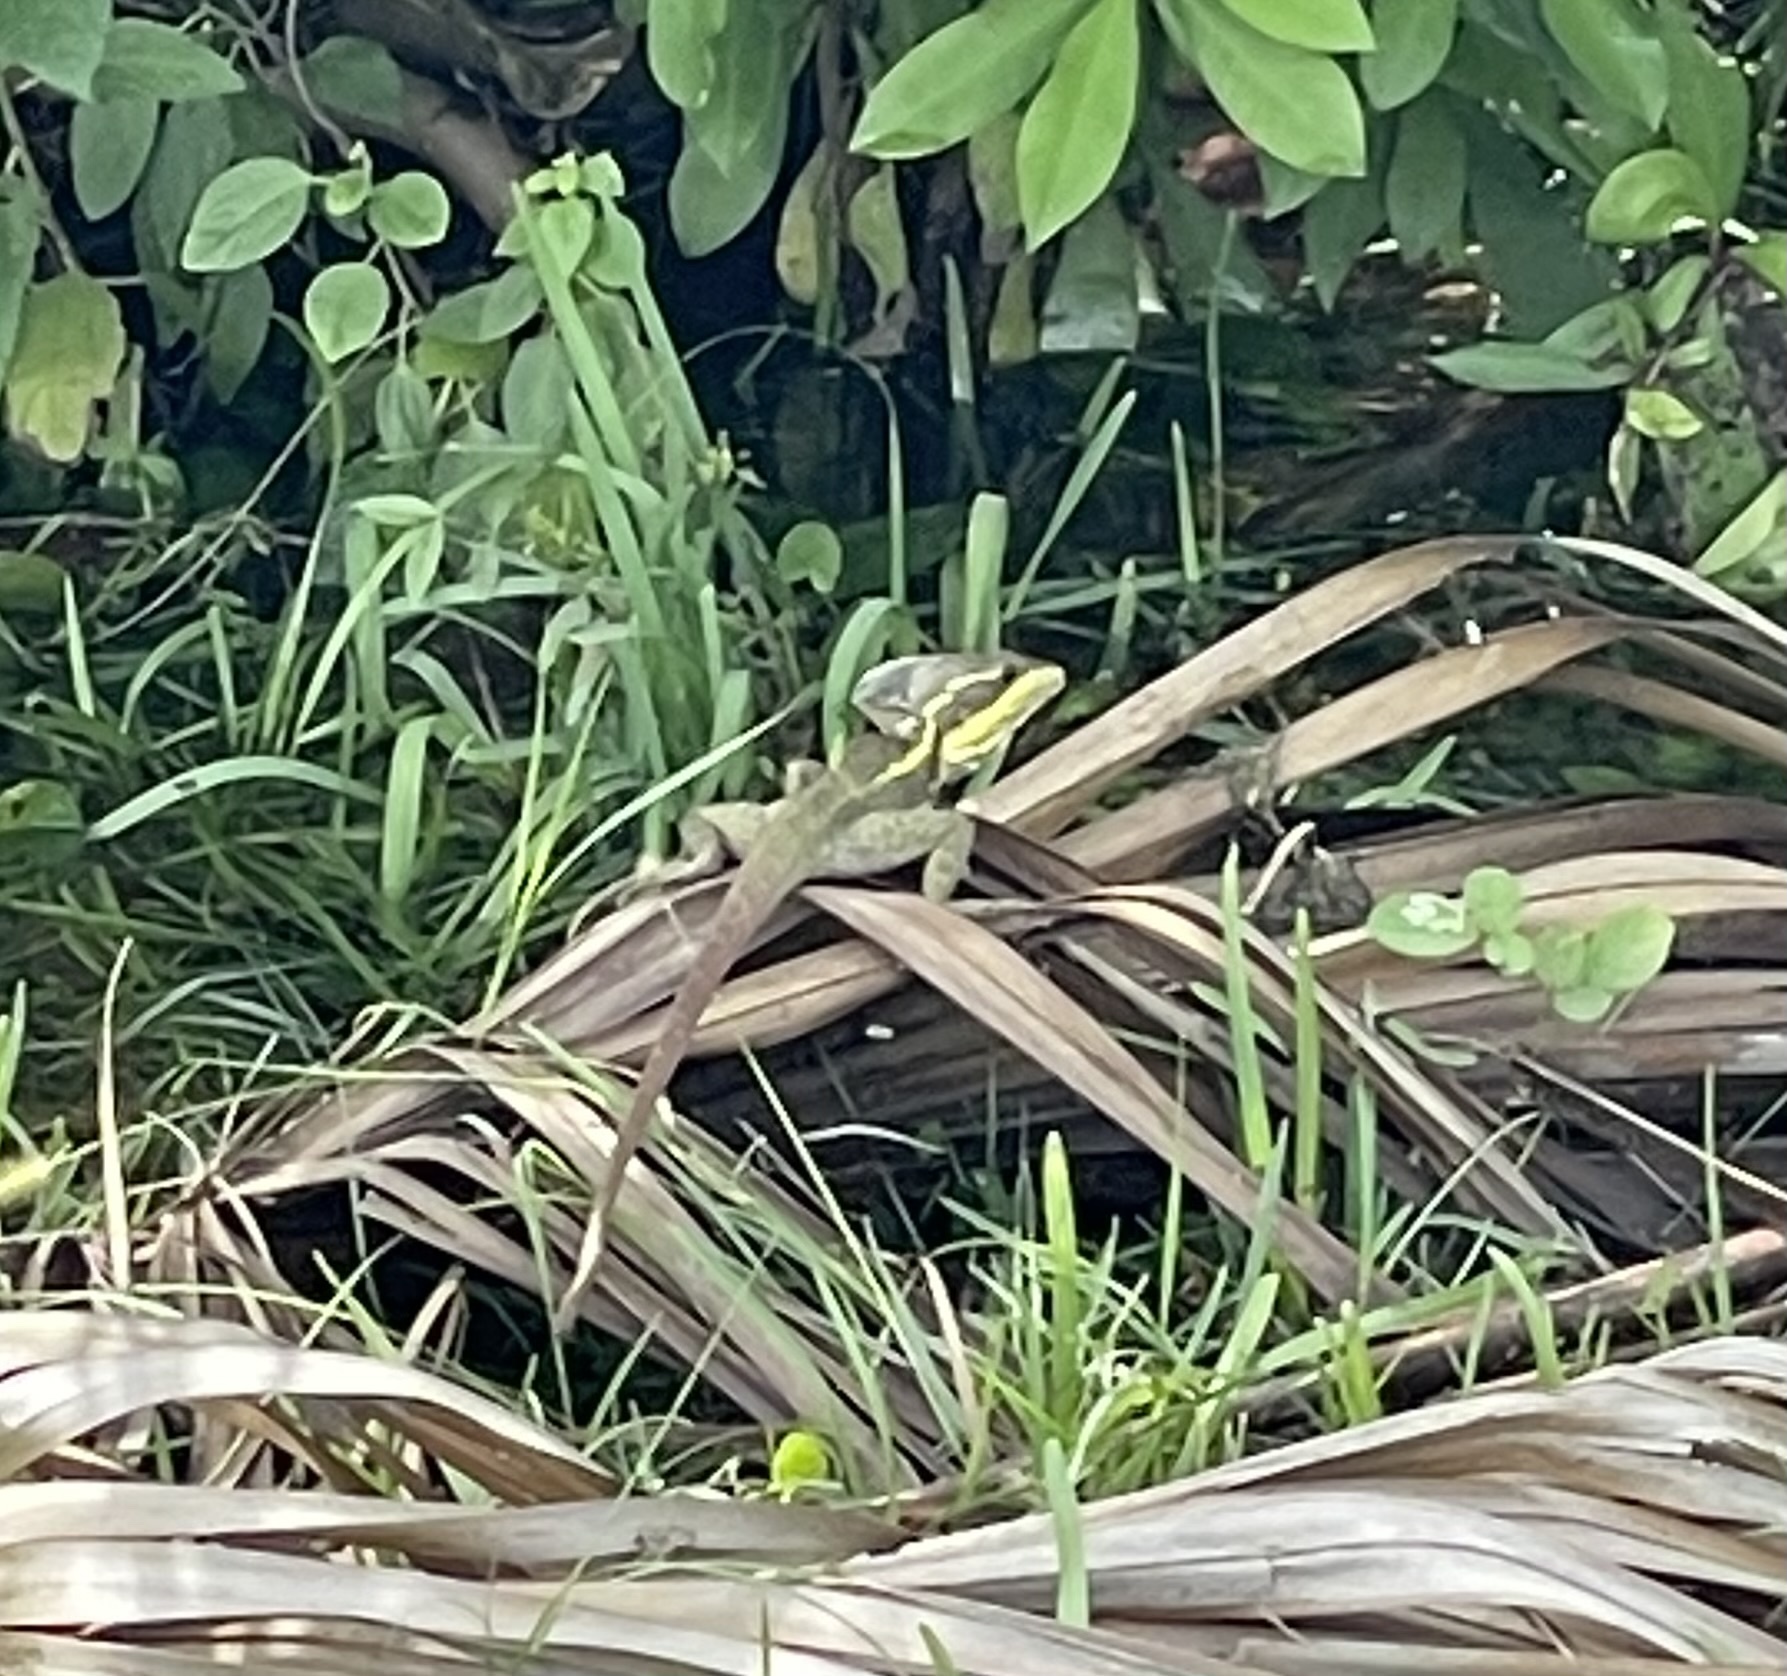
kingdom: Animalia
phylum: Chordata
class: Squamata
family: Corytophanidae
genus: Basiliscus
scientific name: Basiliscus vittatus
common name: Brown basilisk
